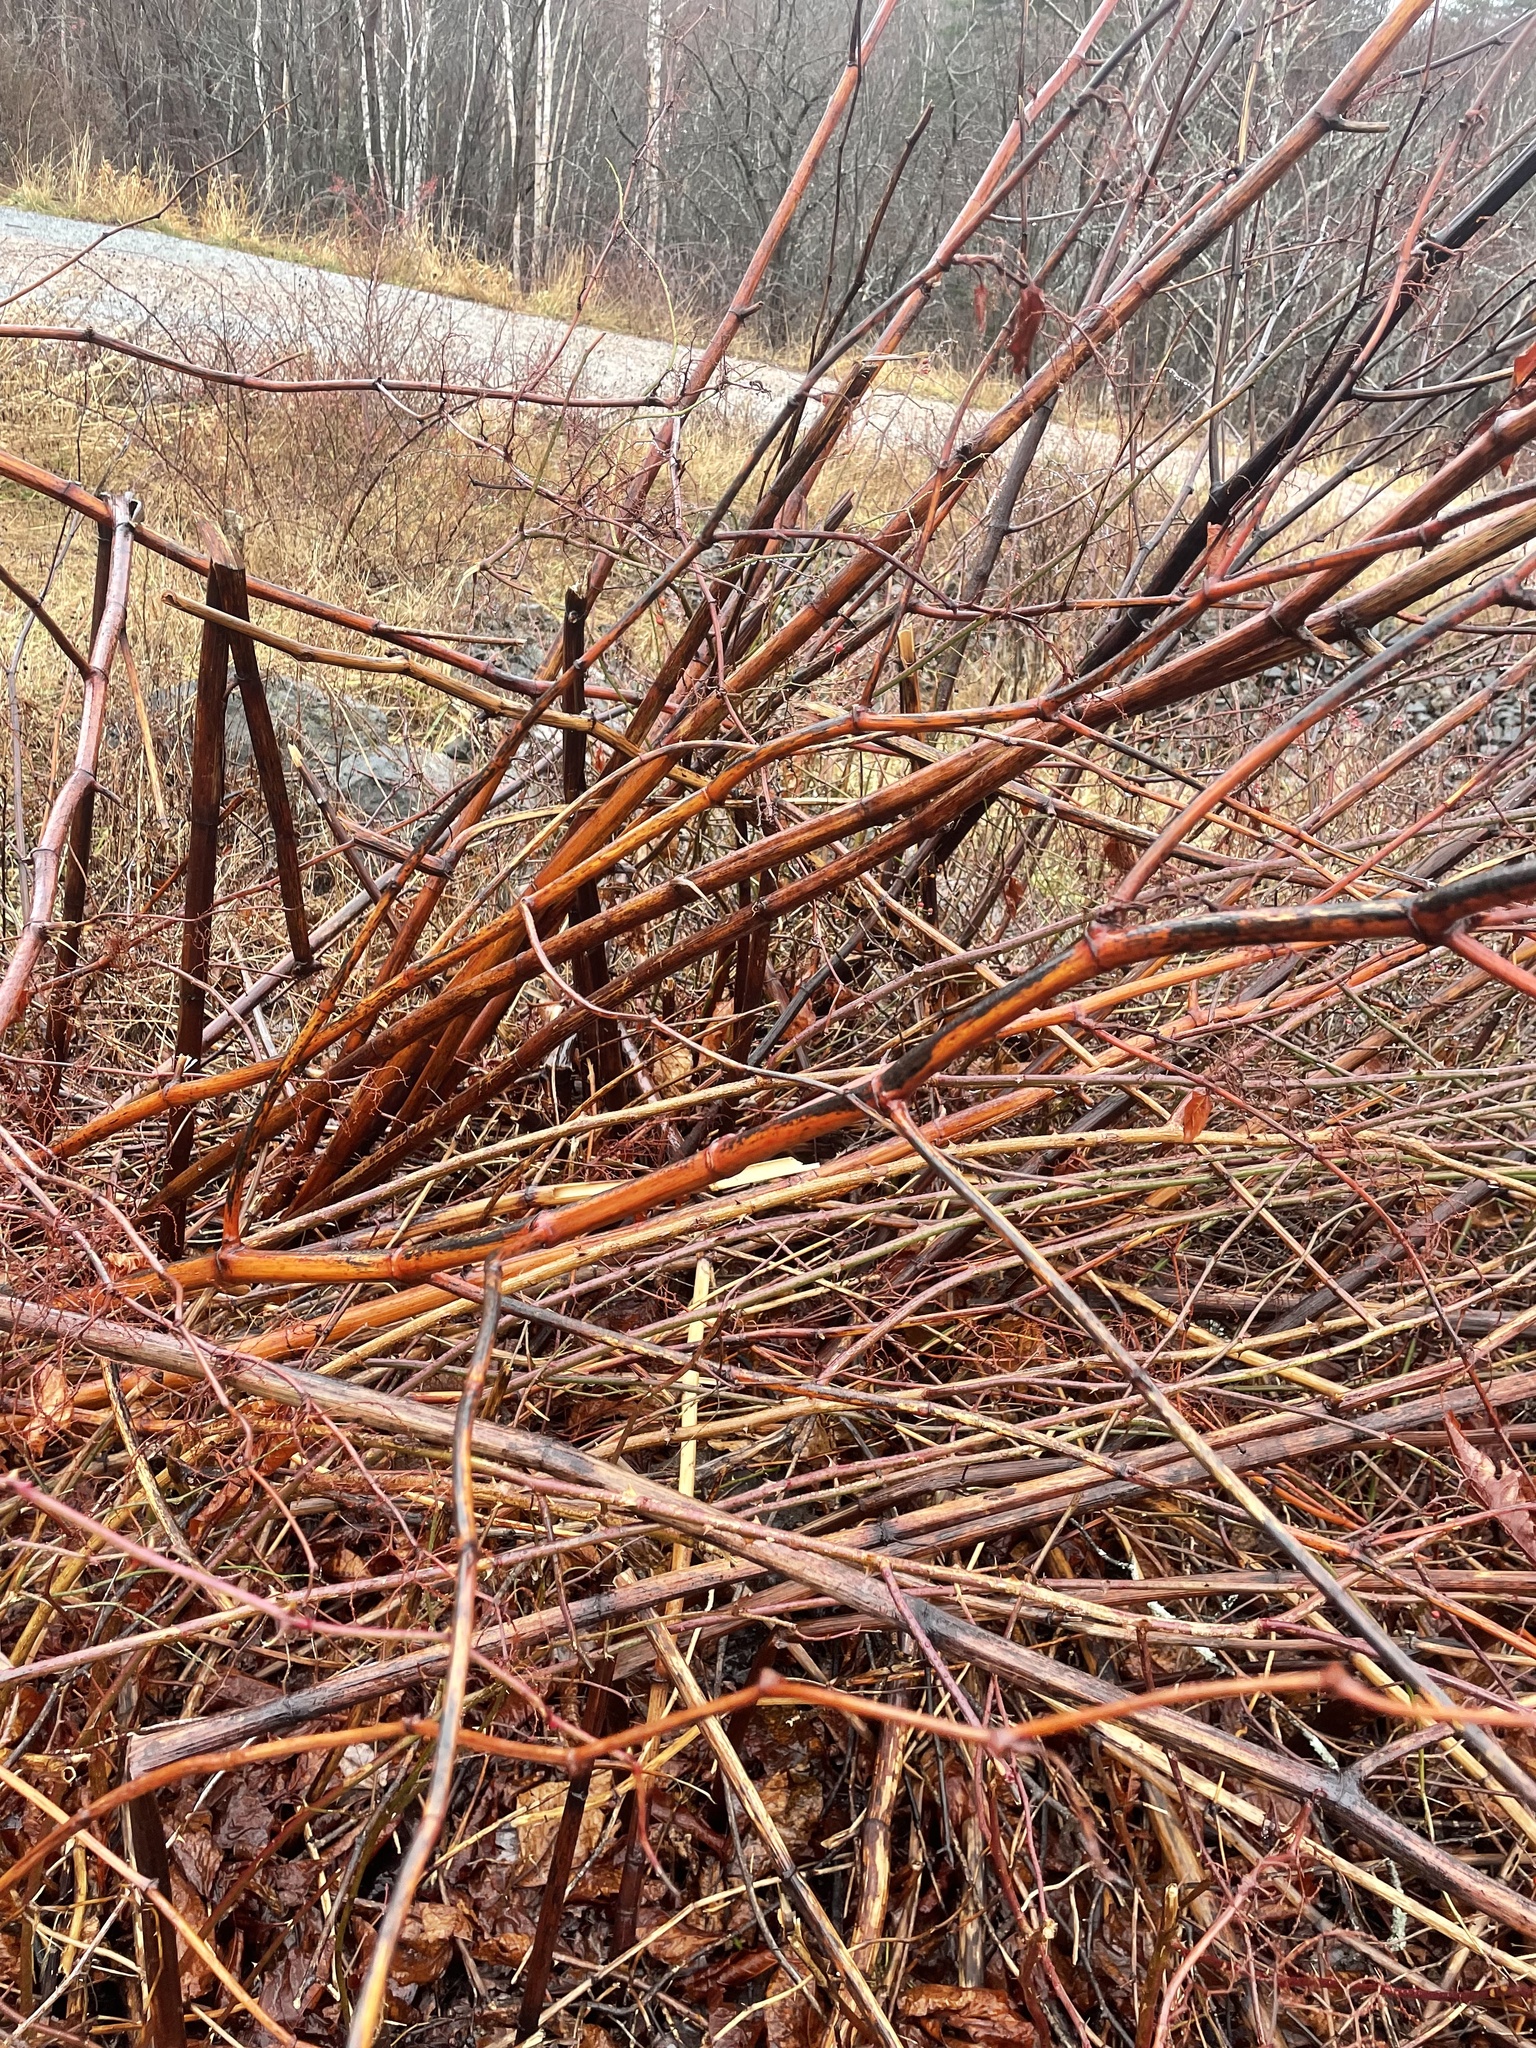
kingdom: Plantae
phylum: Tracheophyta
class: Magnoliopsida
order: Caryophyllales
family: Polygonaceae
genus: Reynoutria
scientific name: Reynoutria japonica
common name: Japanese knotweed
